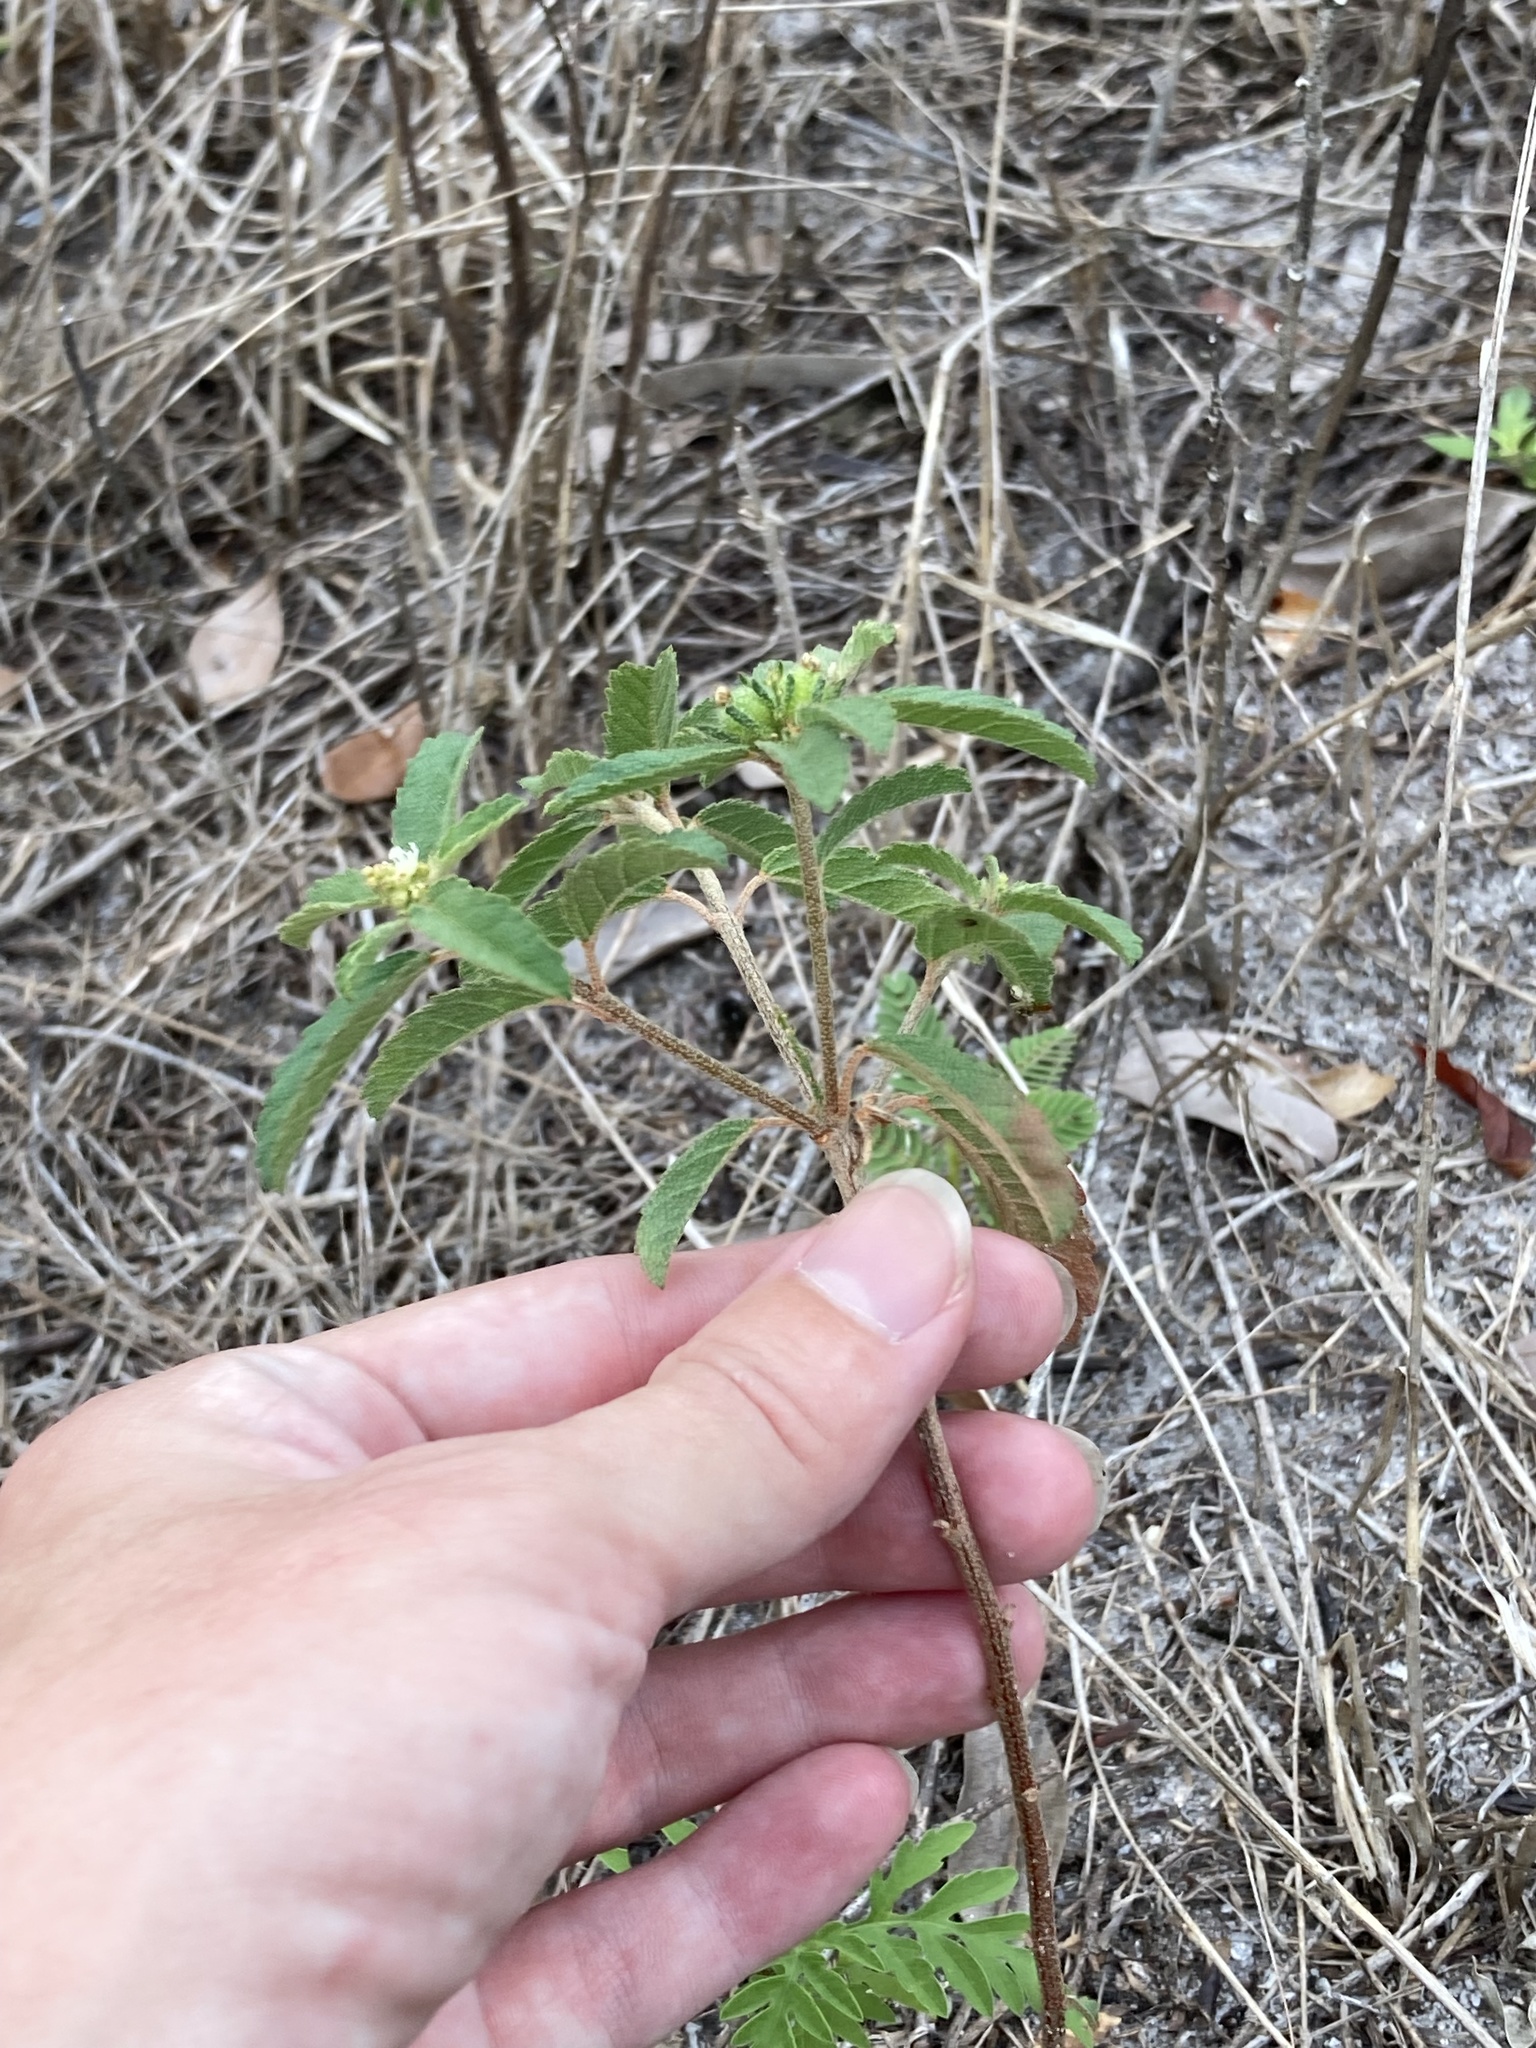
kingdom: Plantae
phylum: Tracheophyta
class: Magnoliopsida
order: Malpighiales
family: Euphorbiaceae
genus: Croton
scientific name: Croton glandulosus
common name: Tropic croton
